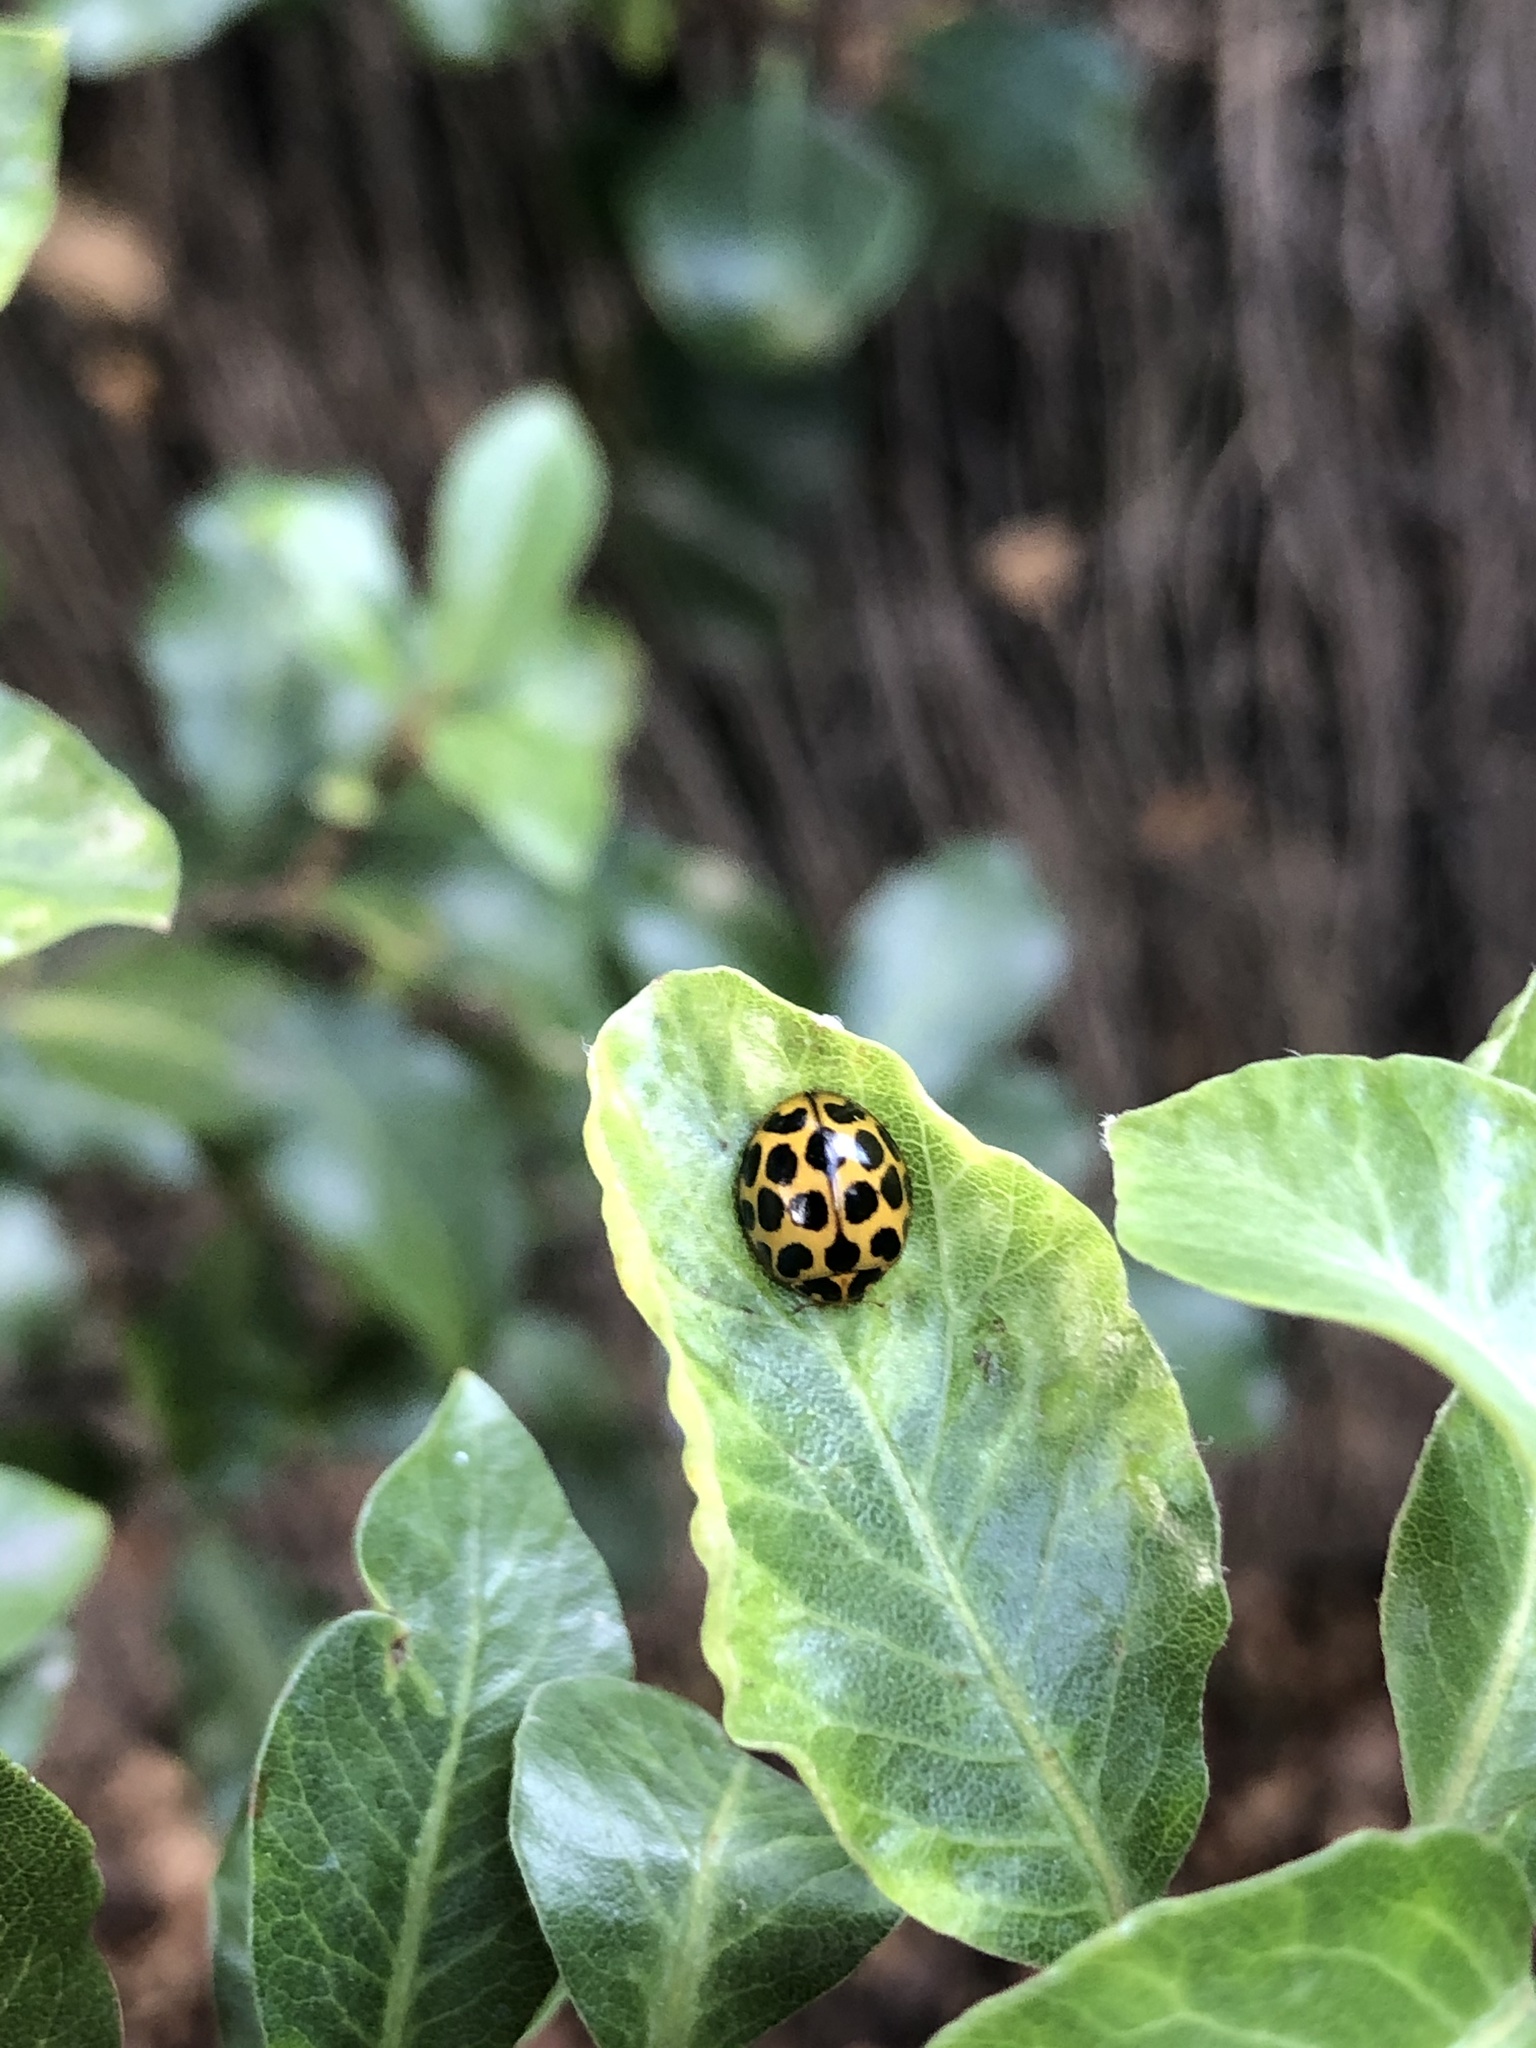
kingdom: Animalia
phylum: Arthropoda
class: Insecta
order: Coleoptera
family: Coccinellidae
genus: Harmonia
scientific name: Harmonia conformis
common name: Common spotted ladybird beetle
